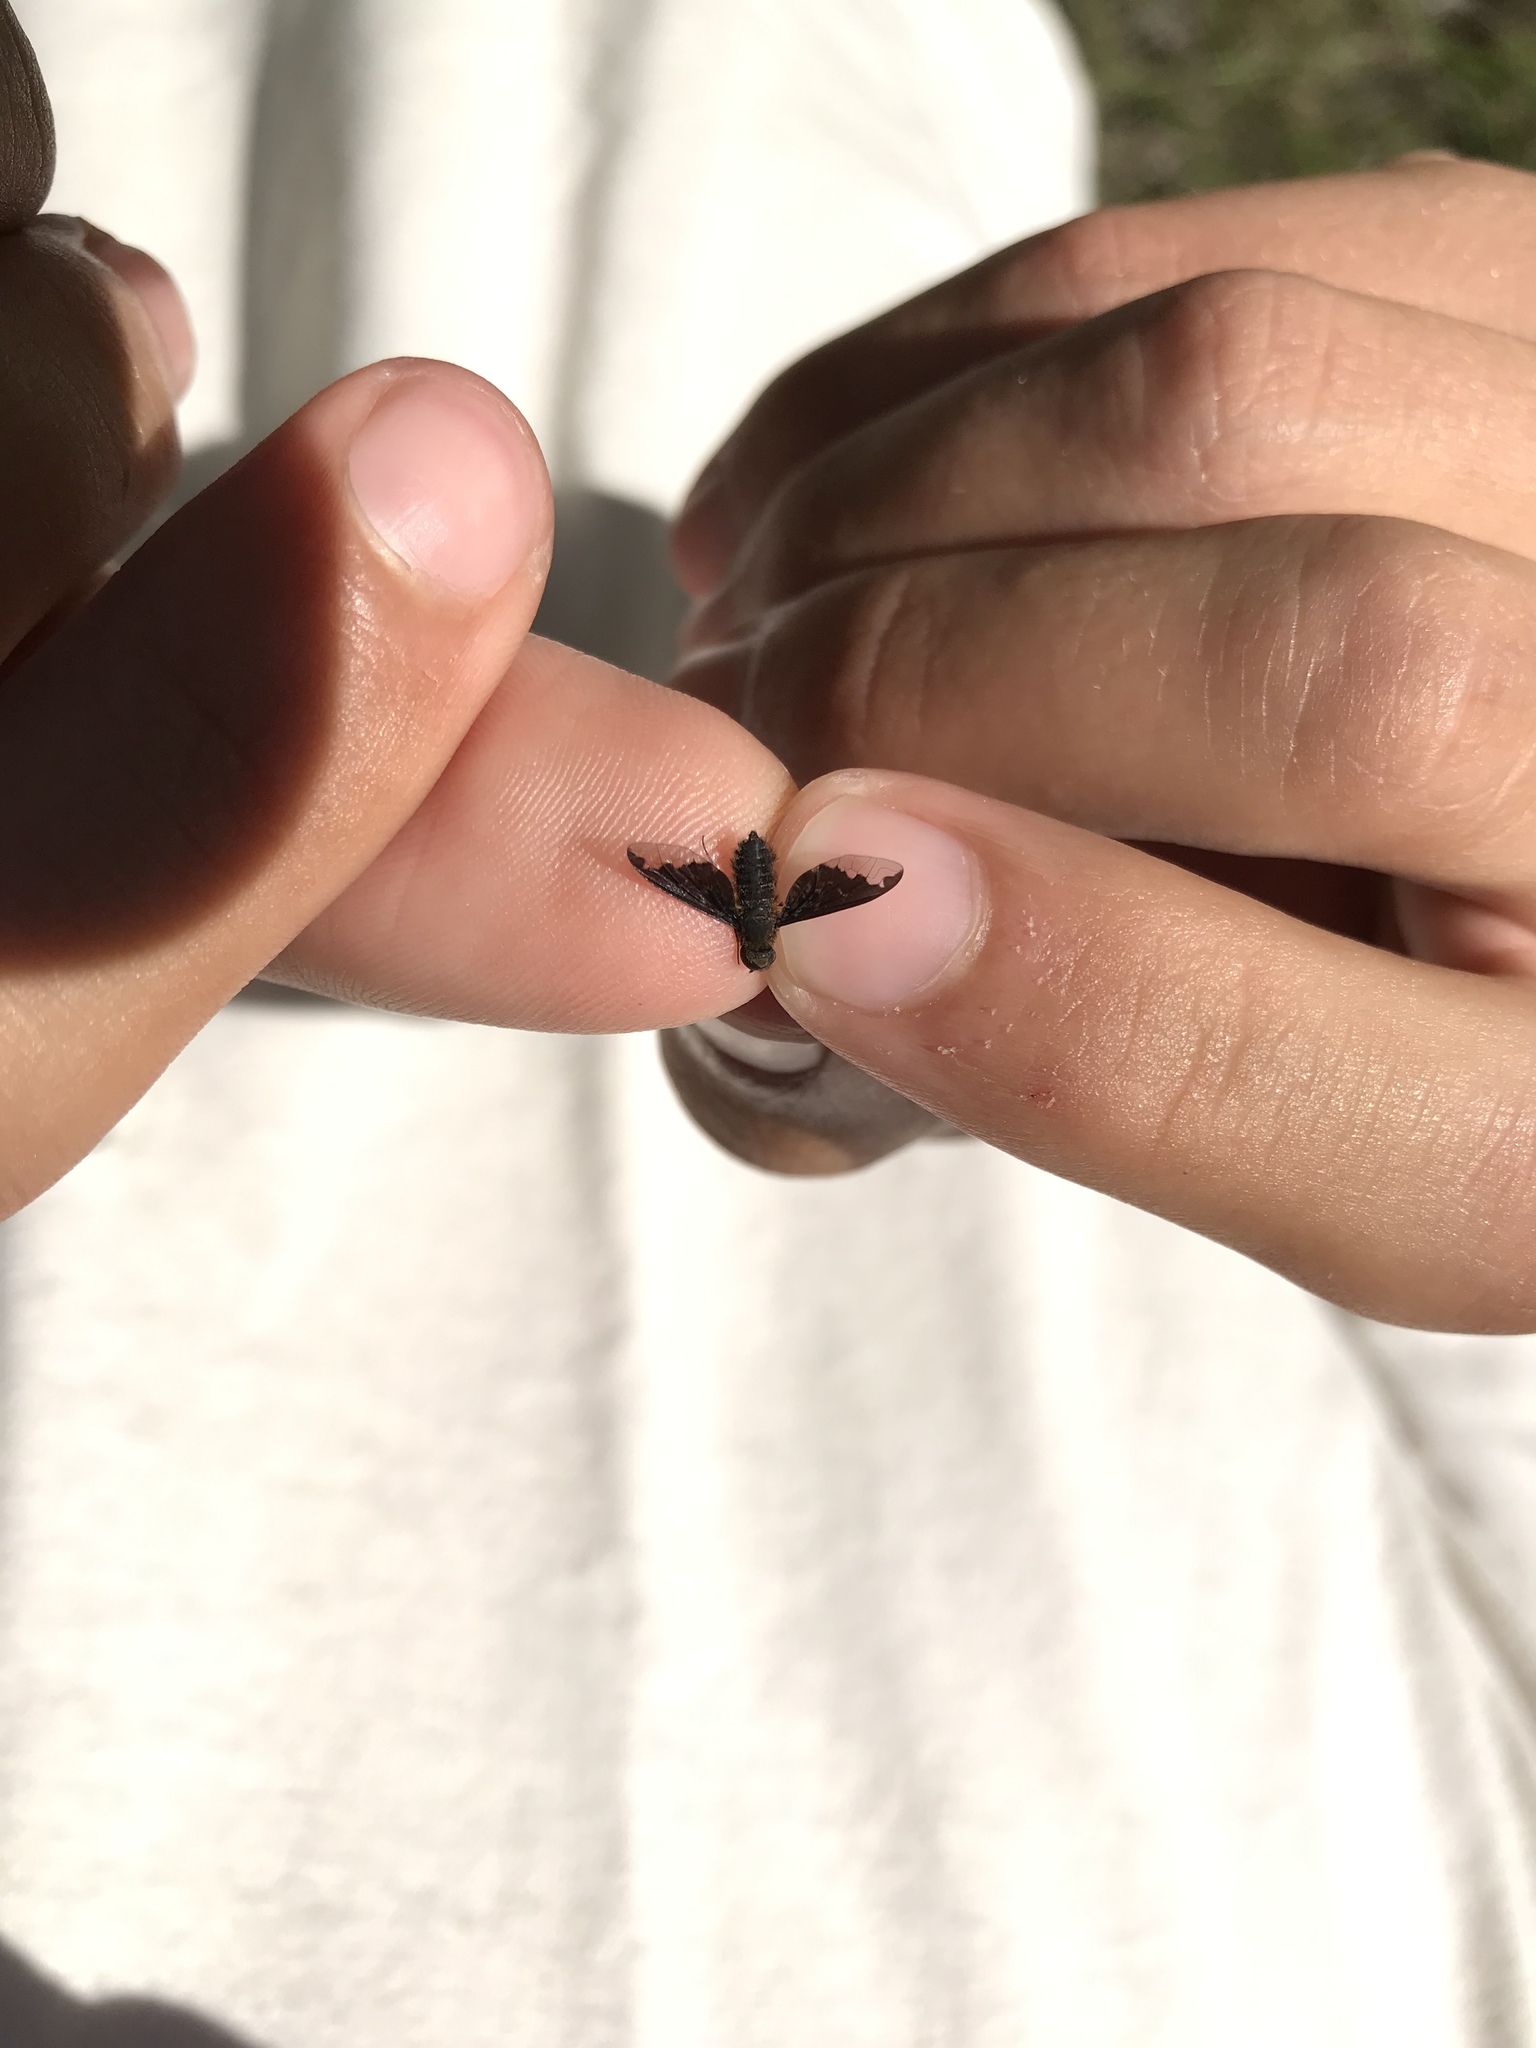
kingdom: Animalia
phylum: Arthropoda
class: Insecta
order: Diptera
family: Bombyliidae
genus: Hemipenthes
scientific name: Hemipenthes sinuosus
